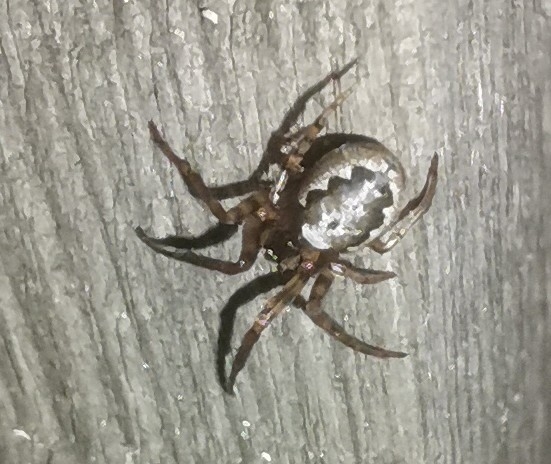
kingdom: Animalia
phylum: Arthropoda
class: Arachnida
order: Araneae
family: Araneidae
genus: Zygiella
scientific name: Zygiella atrica
